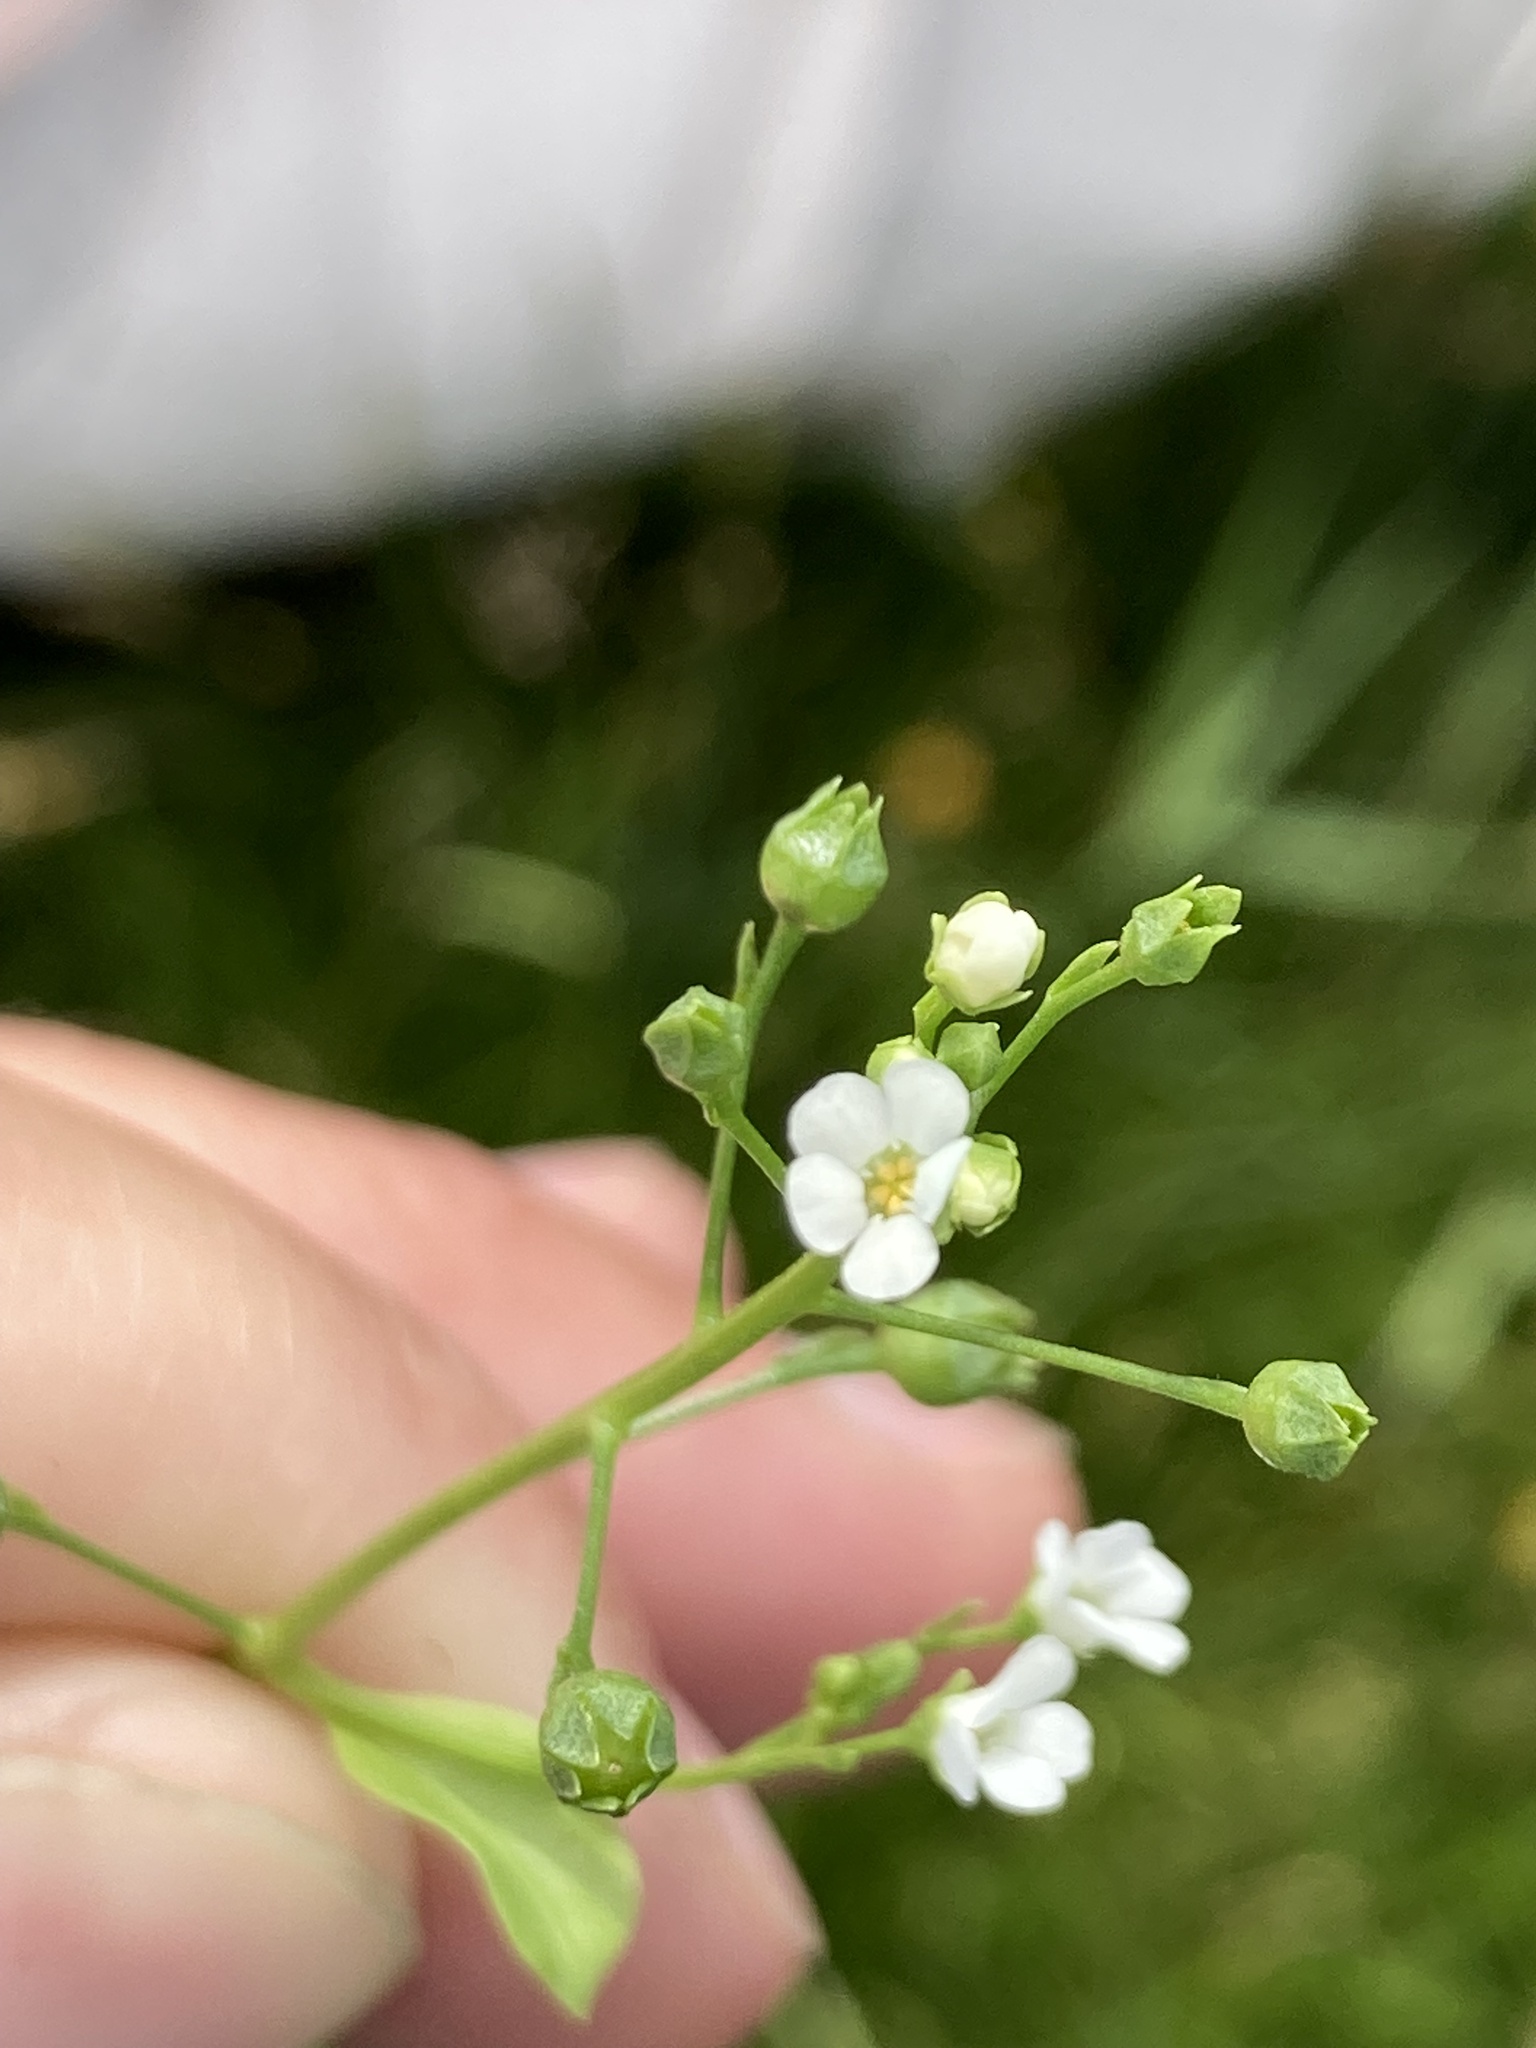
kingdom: Plantae
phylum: Tracheophyta
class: Magnoliopsida
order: Ericales
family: Primulaceae
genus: Samolus
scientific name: Samolus valerandi
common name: Brookweed
